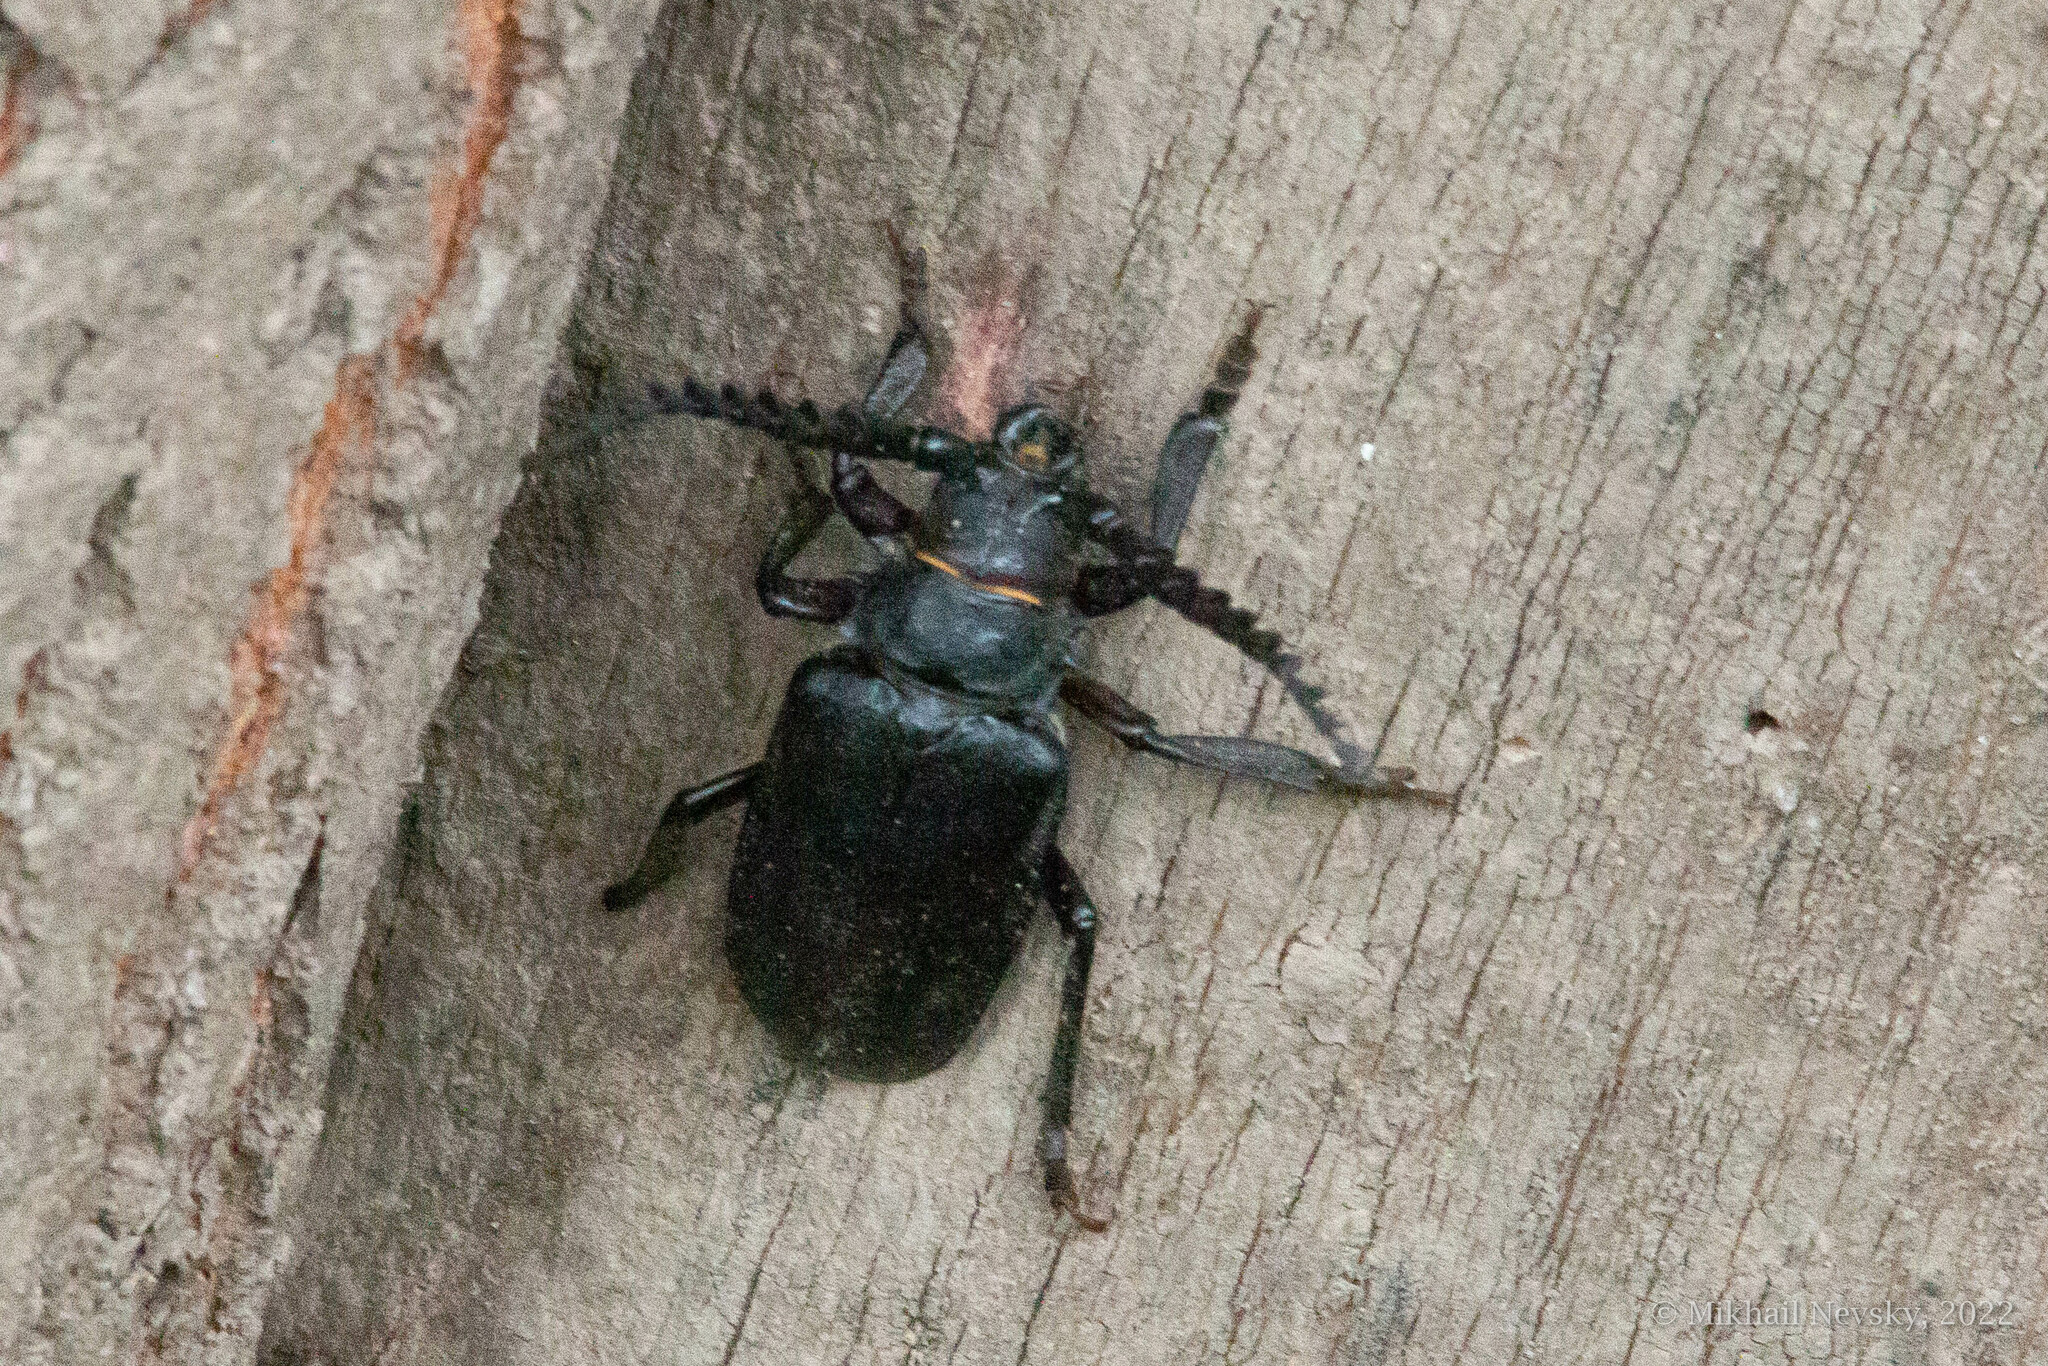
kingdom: Animalia
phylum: Arthropoda
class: Insecta
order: Coleoptera
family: Cerambycidae
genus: Prionus
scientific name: Prionus coriarius
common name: Tanner beetle
